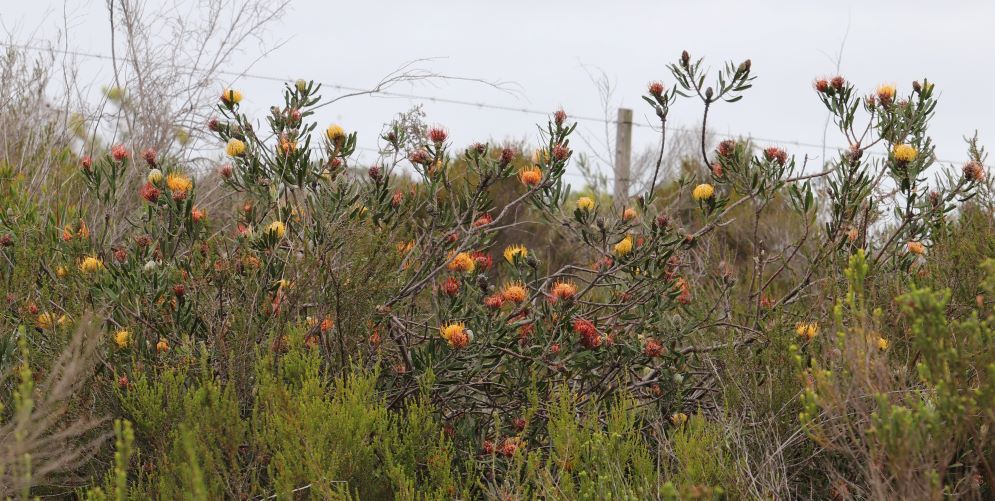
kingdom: Plantae
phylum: Tracheophyta
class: Magnoliopsida
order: Proteales
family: Proteaceae
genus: Leucospermum
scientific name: Leucospermum cuneiforme
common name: Common pincushion
